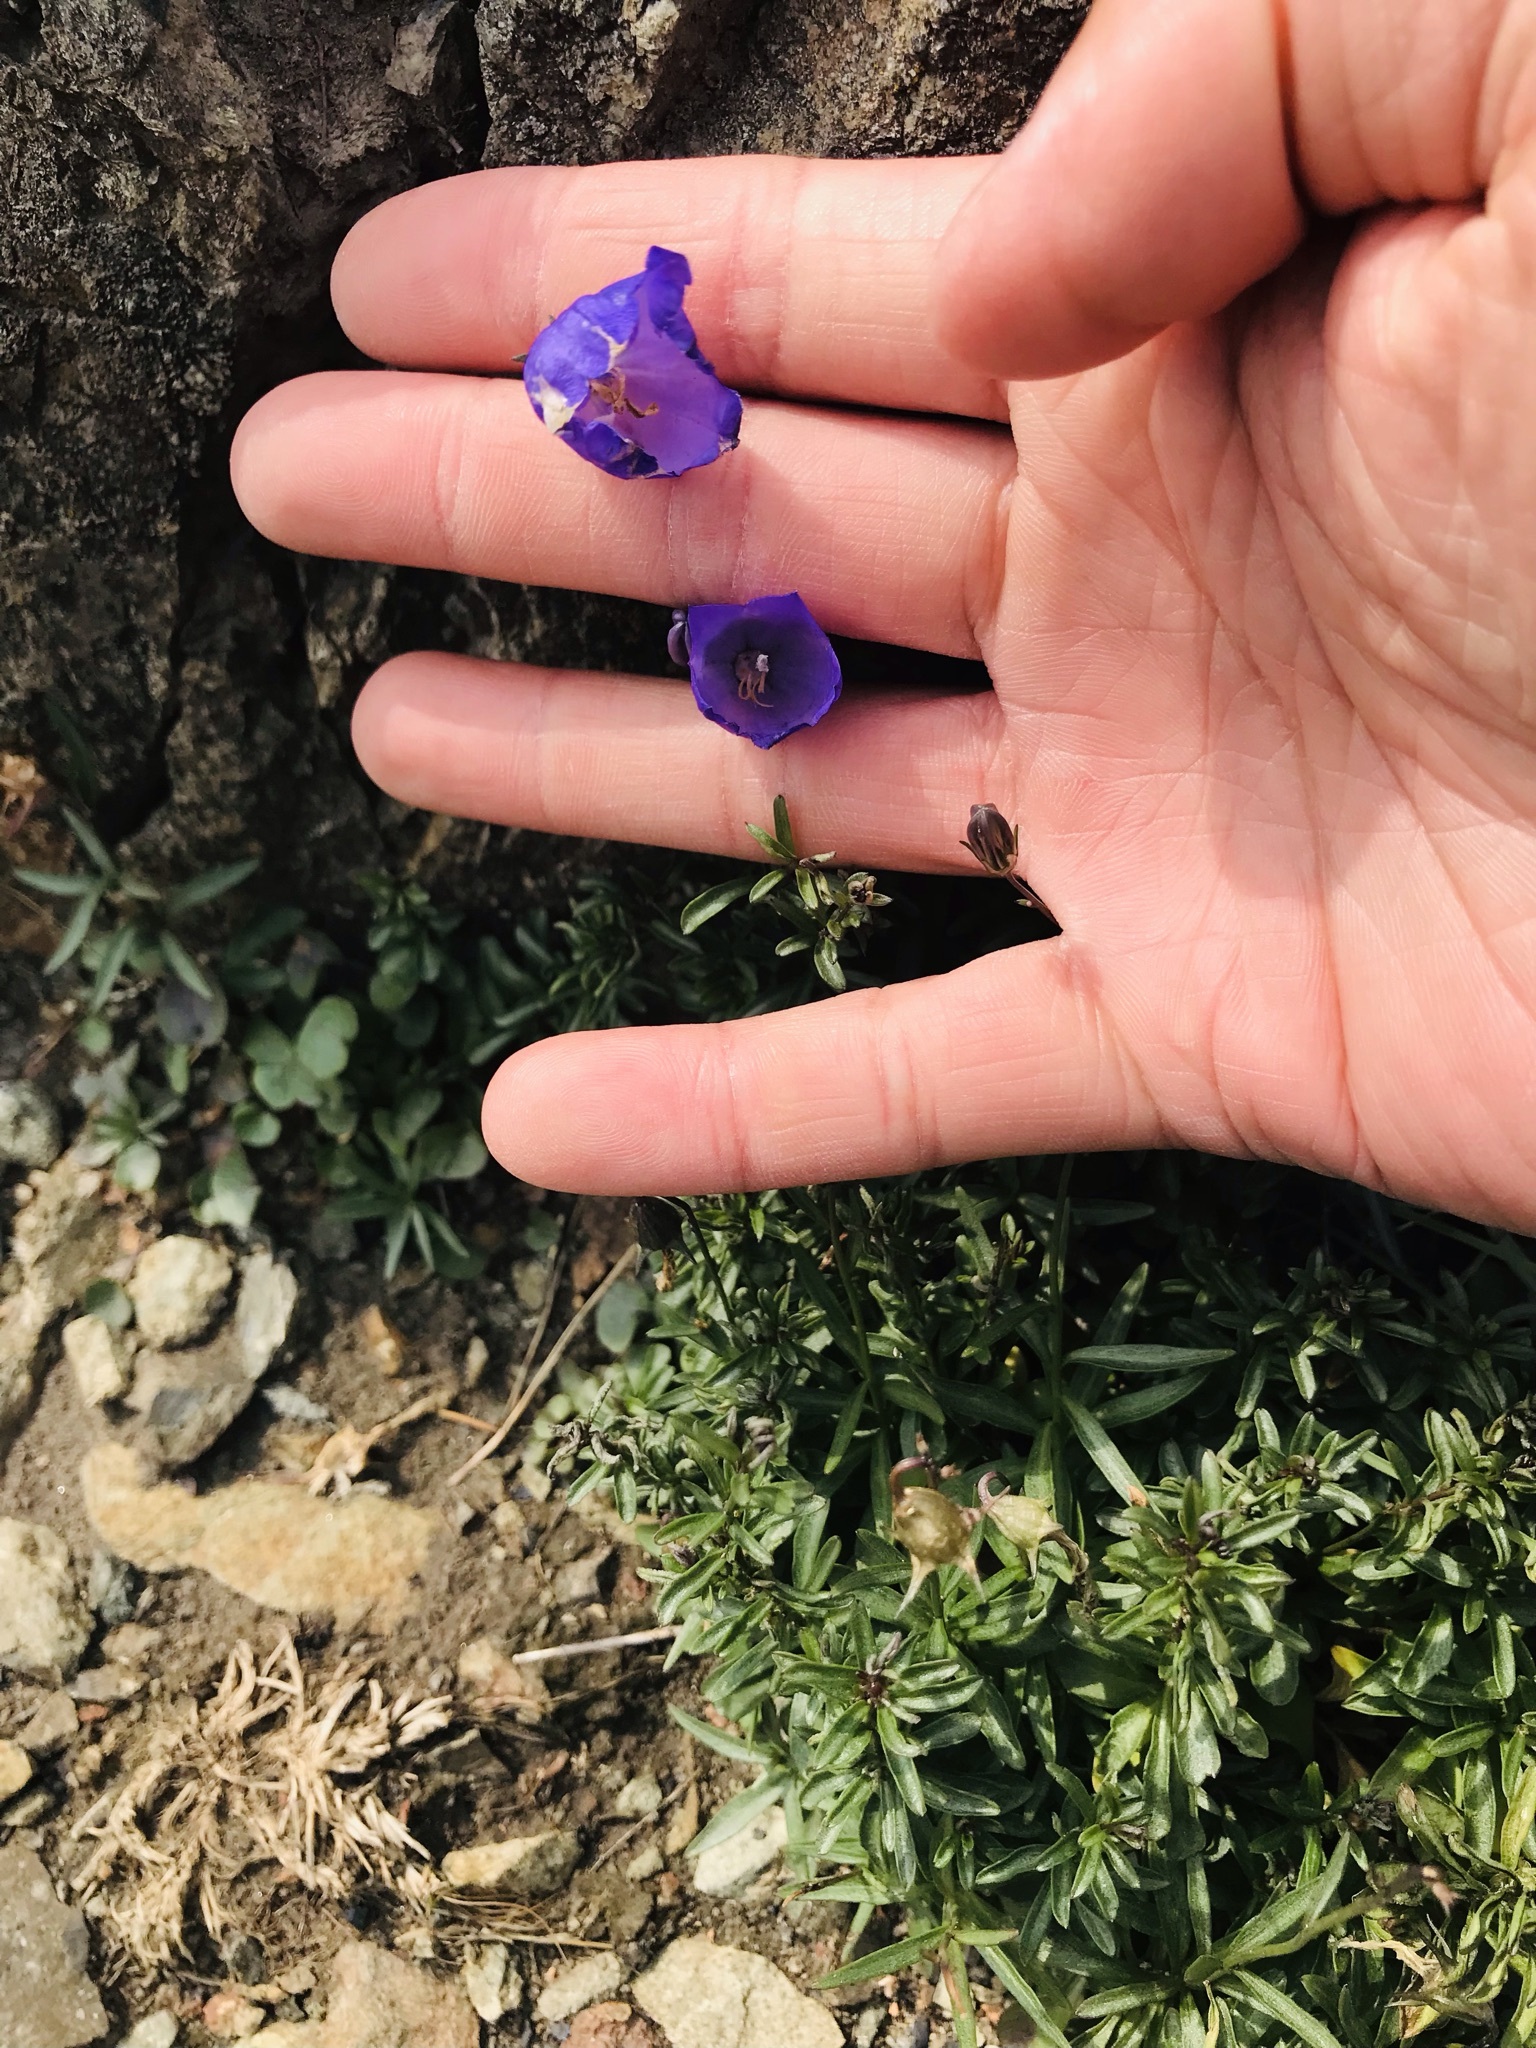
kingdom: Plantae
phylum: Tracheophyta
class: Magnoliopsida
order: Asterales
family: Campanulaceae
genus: Campanula
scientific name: Campanula lasiocarpa
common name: Mountain harebell
